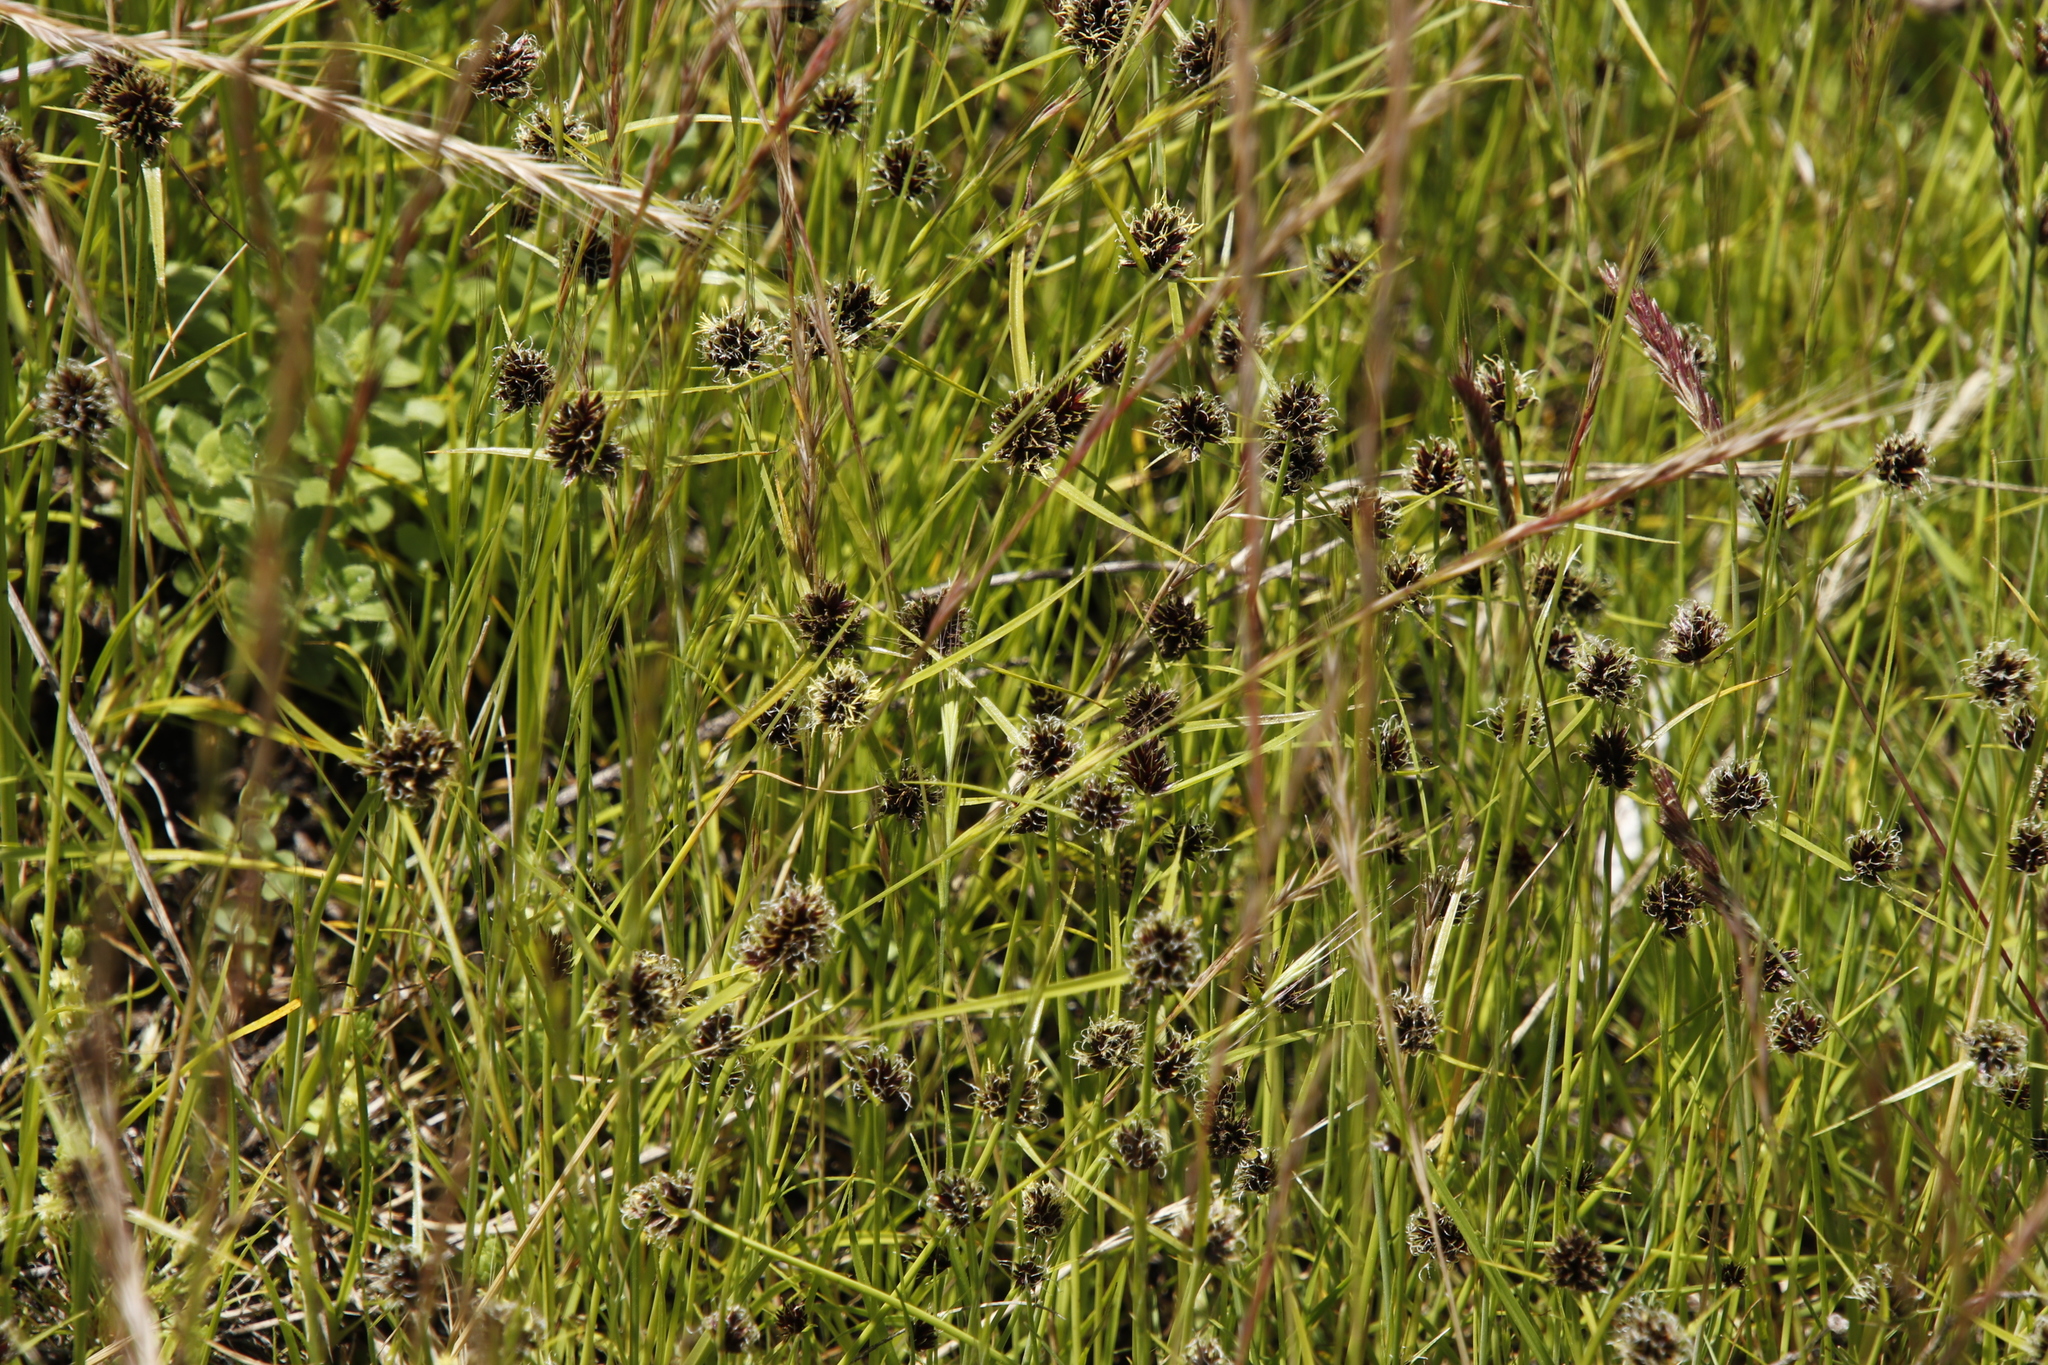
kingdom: Plantae
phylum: Tracheophyta
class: Liliopsida
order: Poales
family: Cyperaceae
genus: Cyperus
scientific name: Cyperus bracheilema
